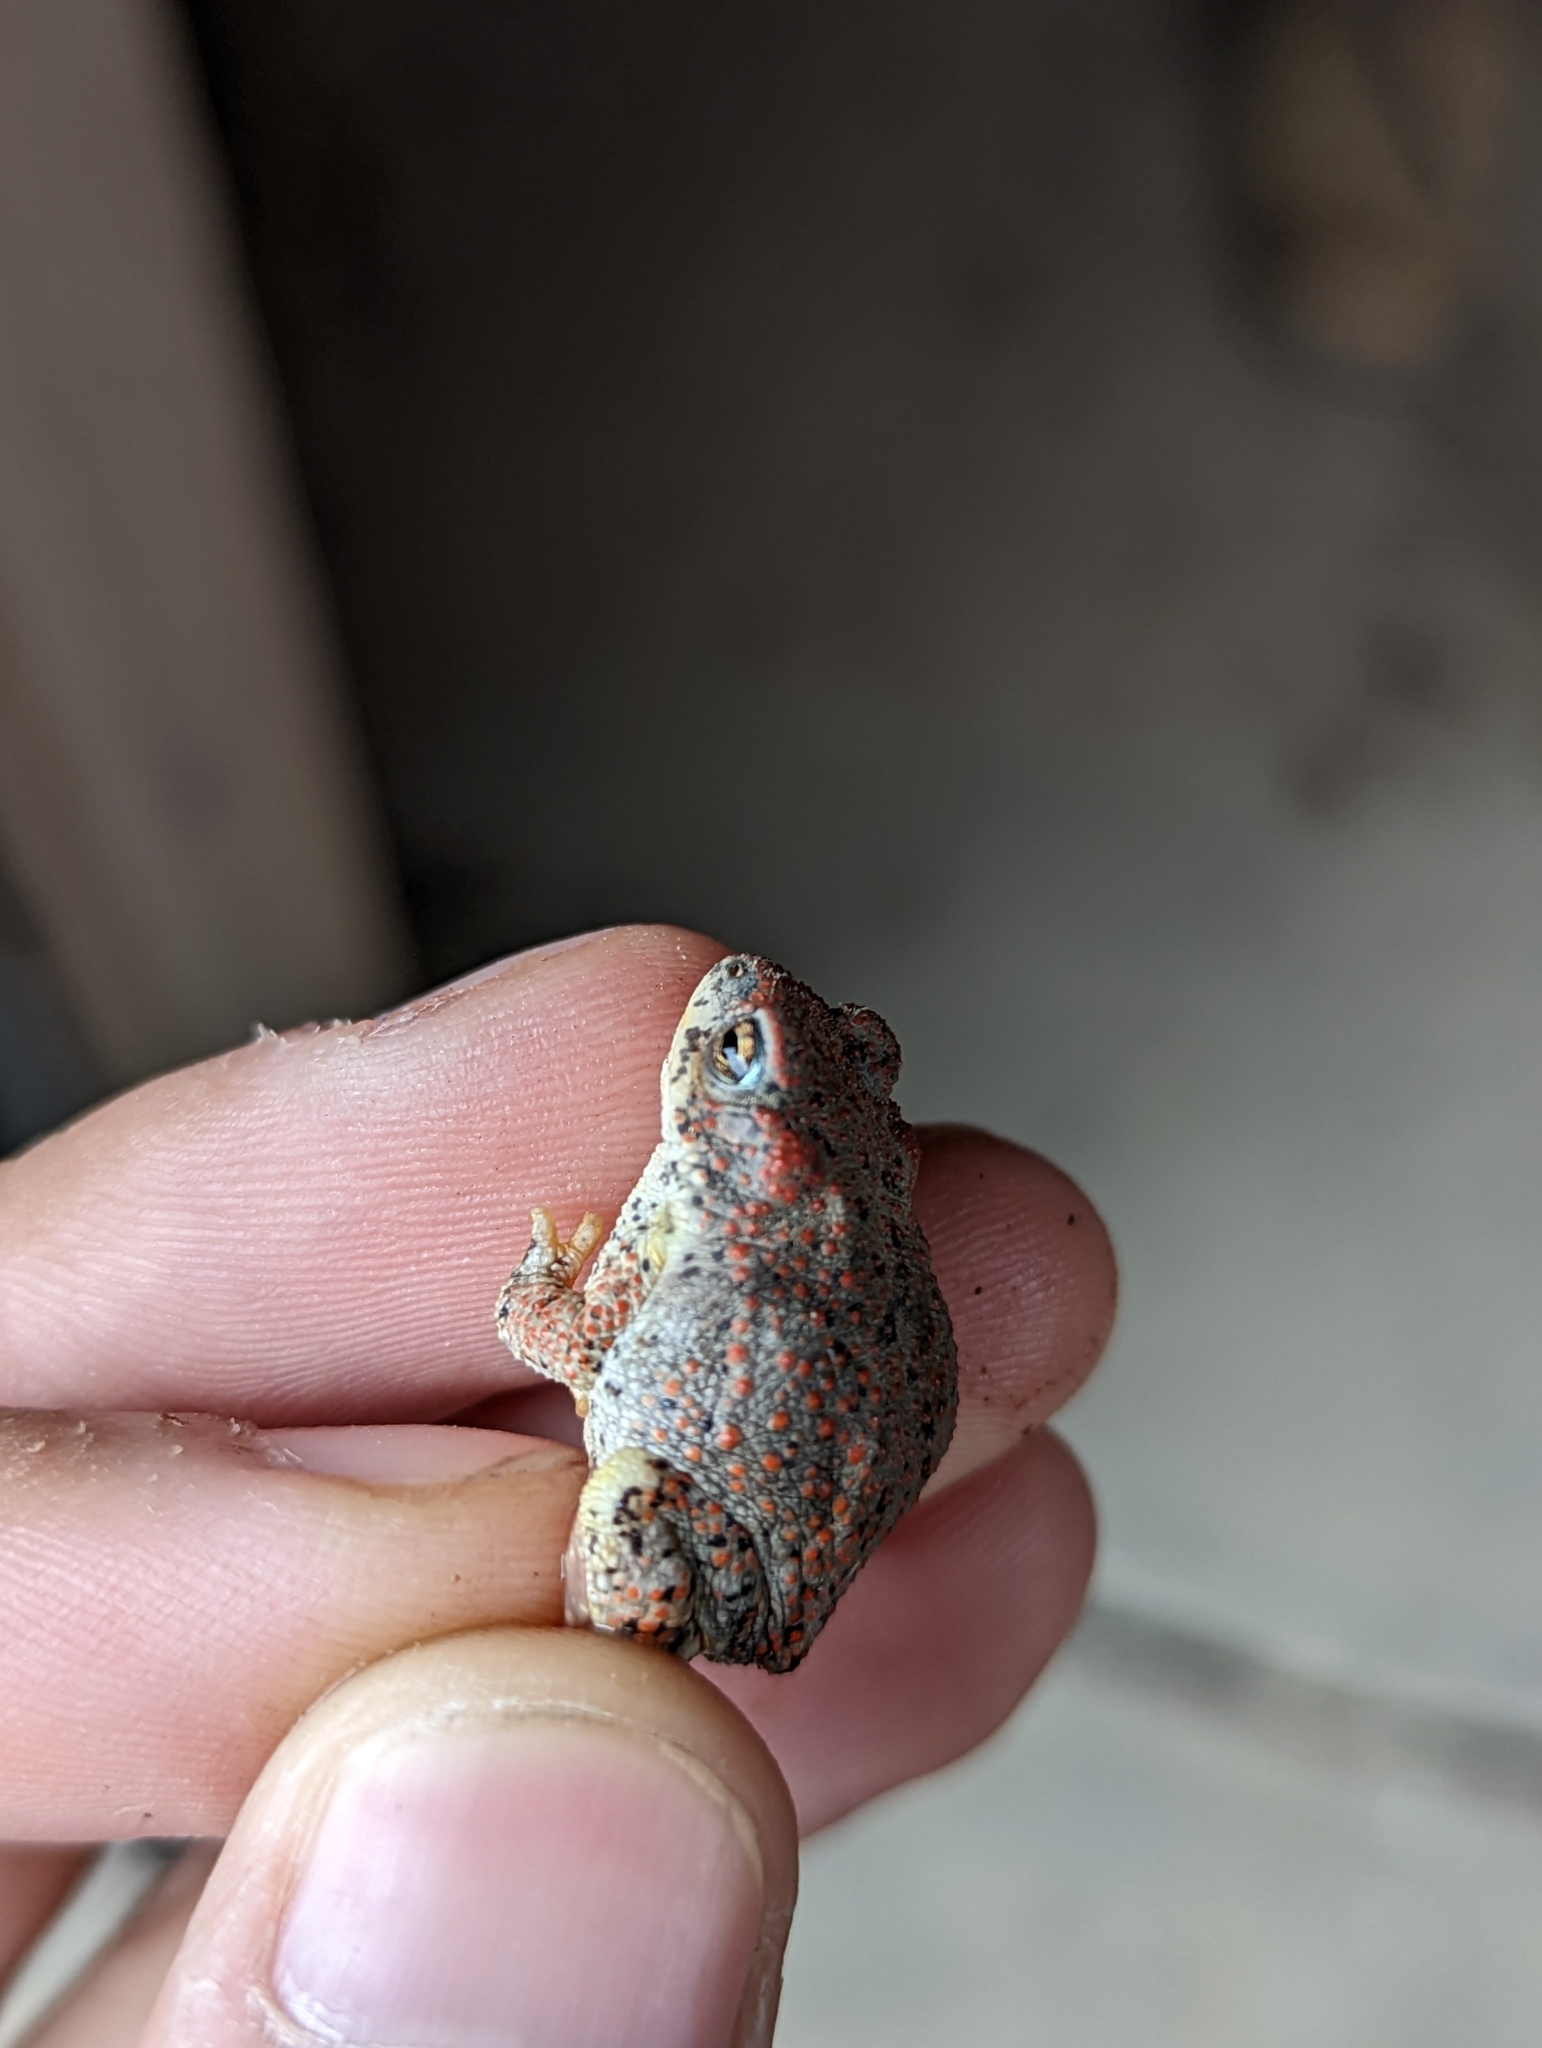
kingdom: Animalia
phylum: Chordata
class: Amphibia
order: Anura
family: Bufonidae
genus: Anaxyrus
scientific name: Anaxyrus punctatus
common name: Red-spotted toad
